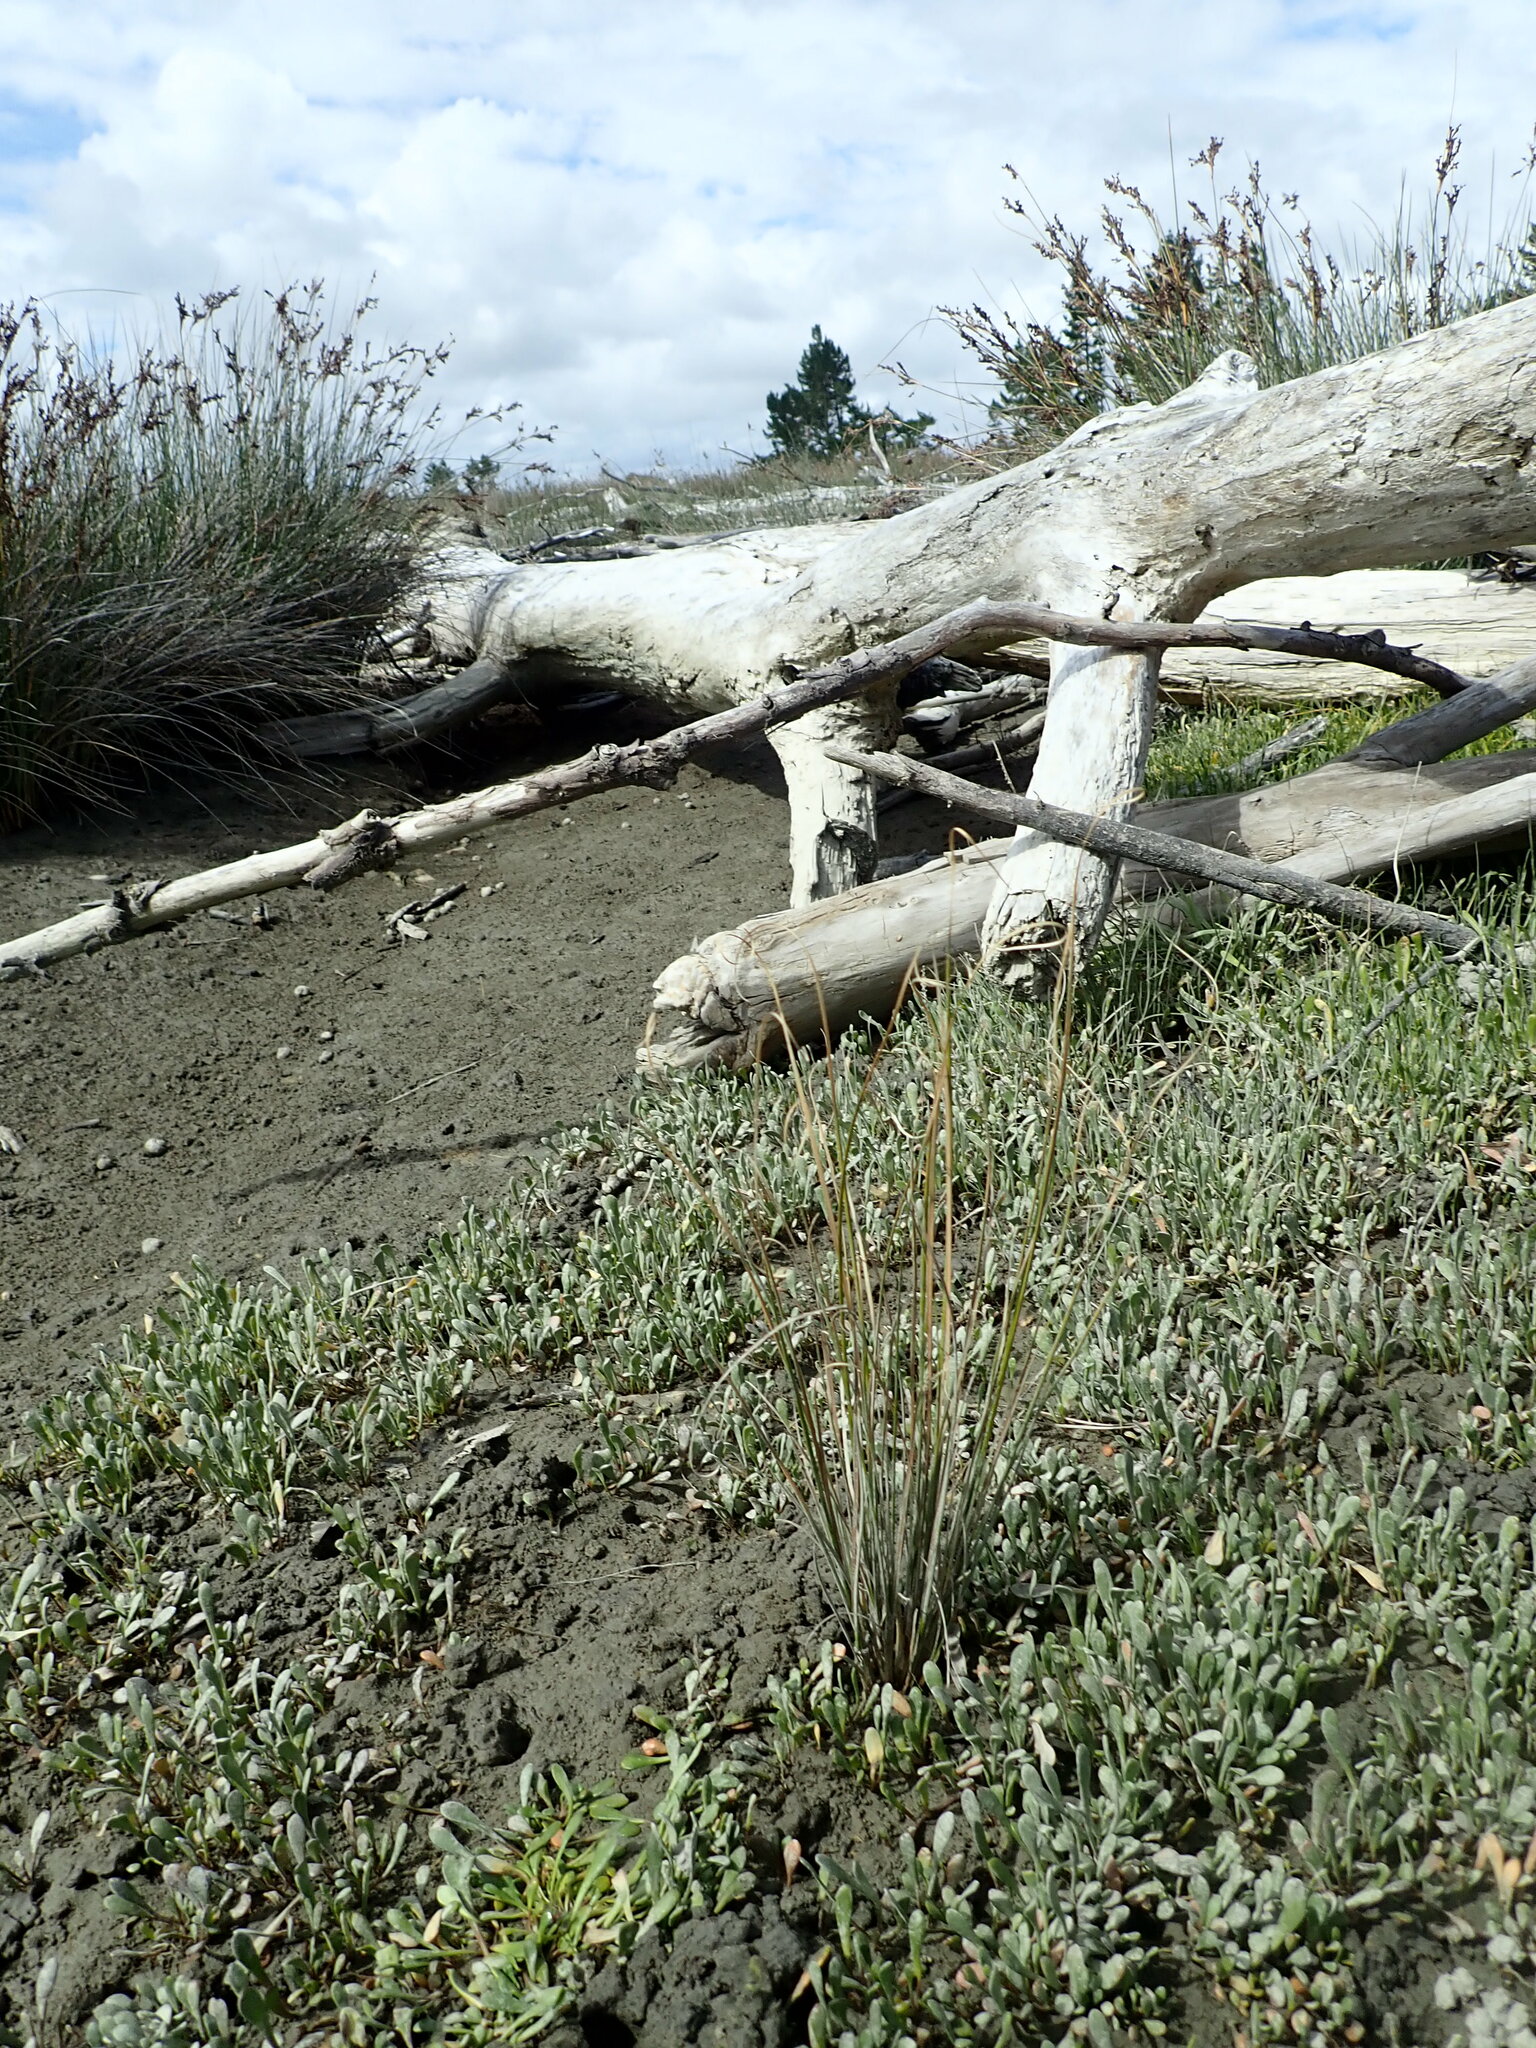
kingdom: Plantae
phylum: Tracheophyta
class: Liliopsida
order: Poales
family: Cyperaceae
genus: Carex
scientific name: Carex litorosa
